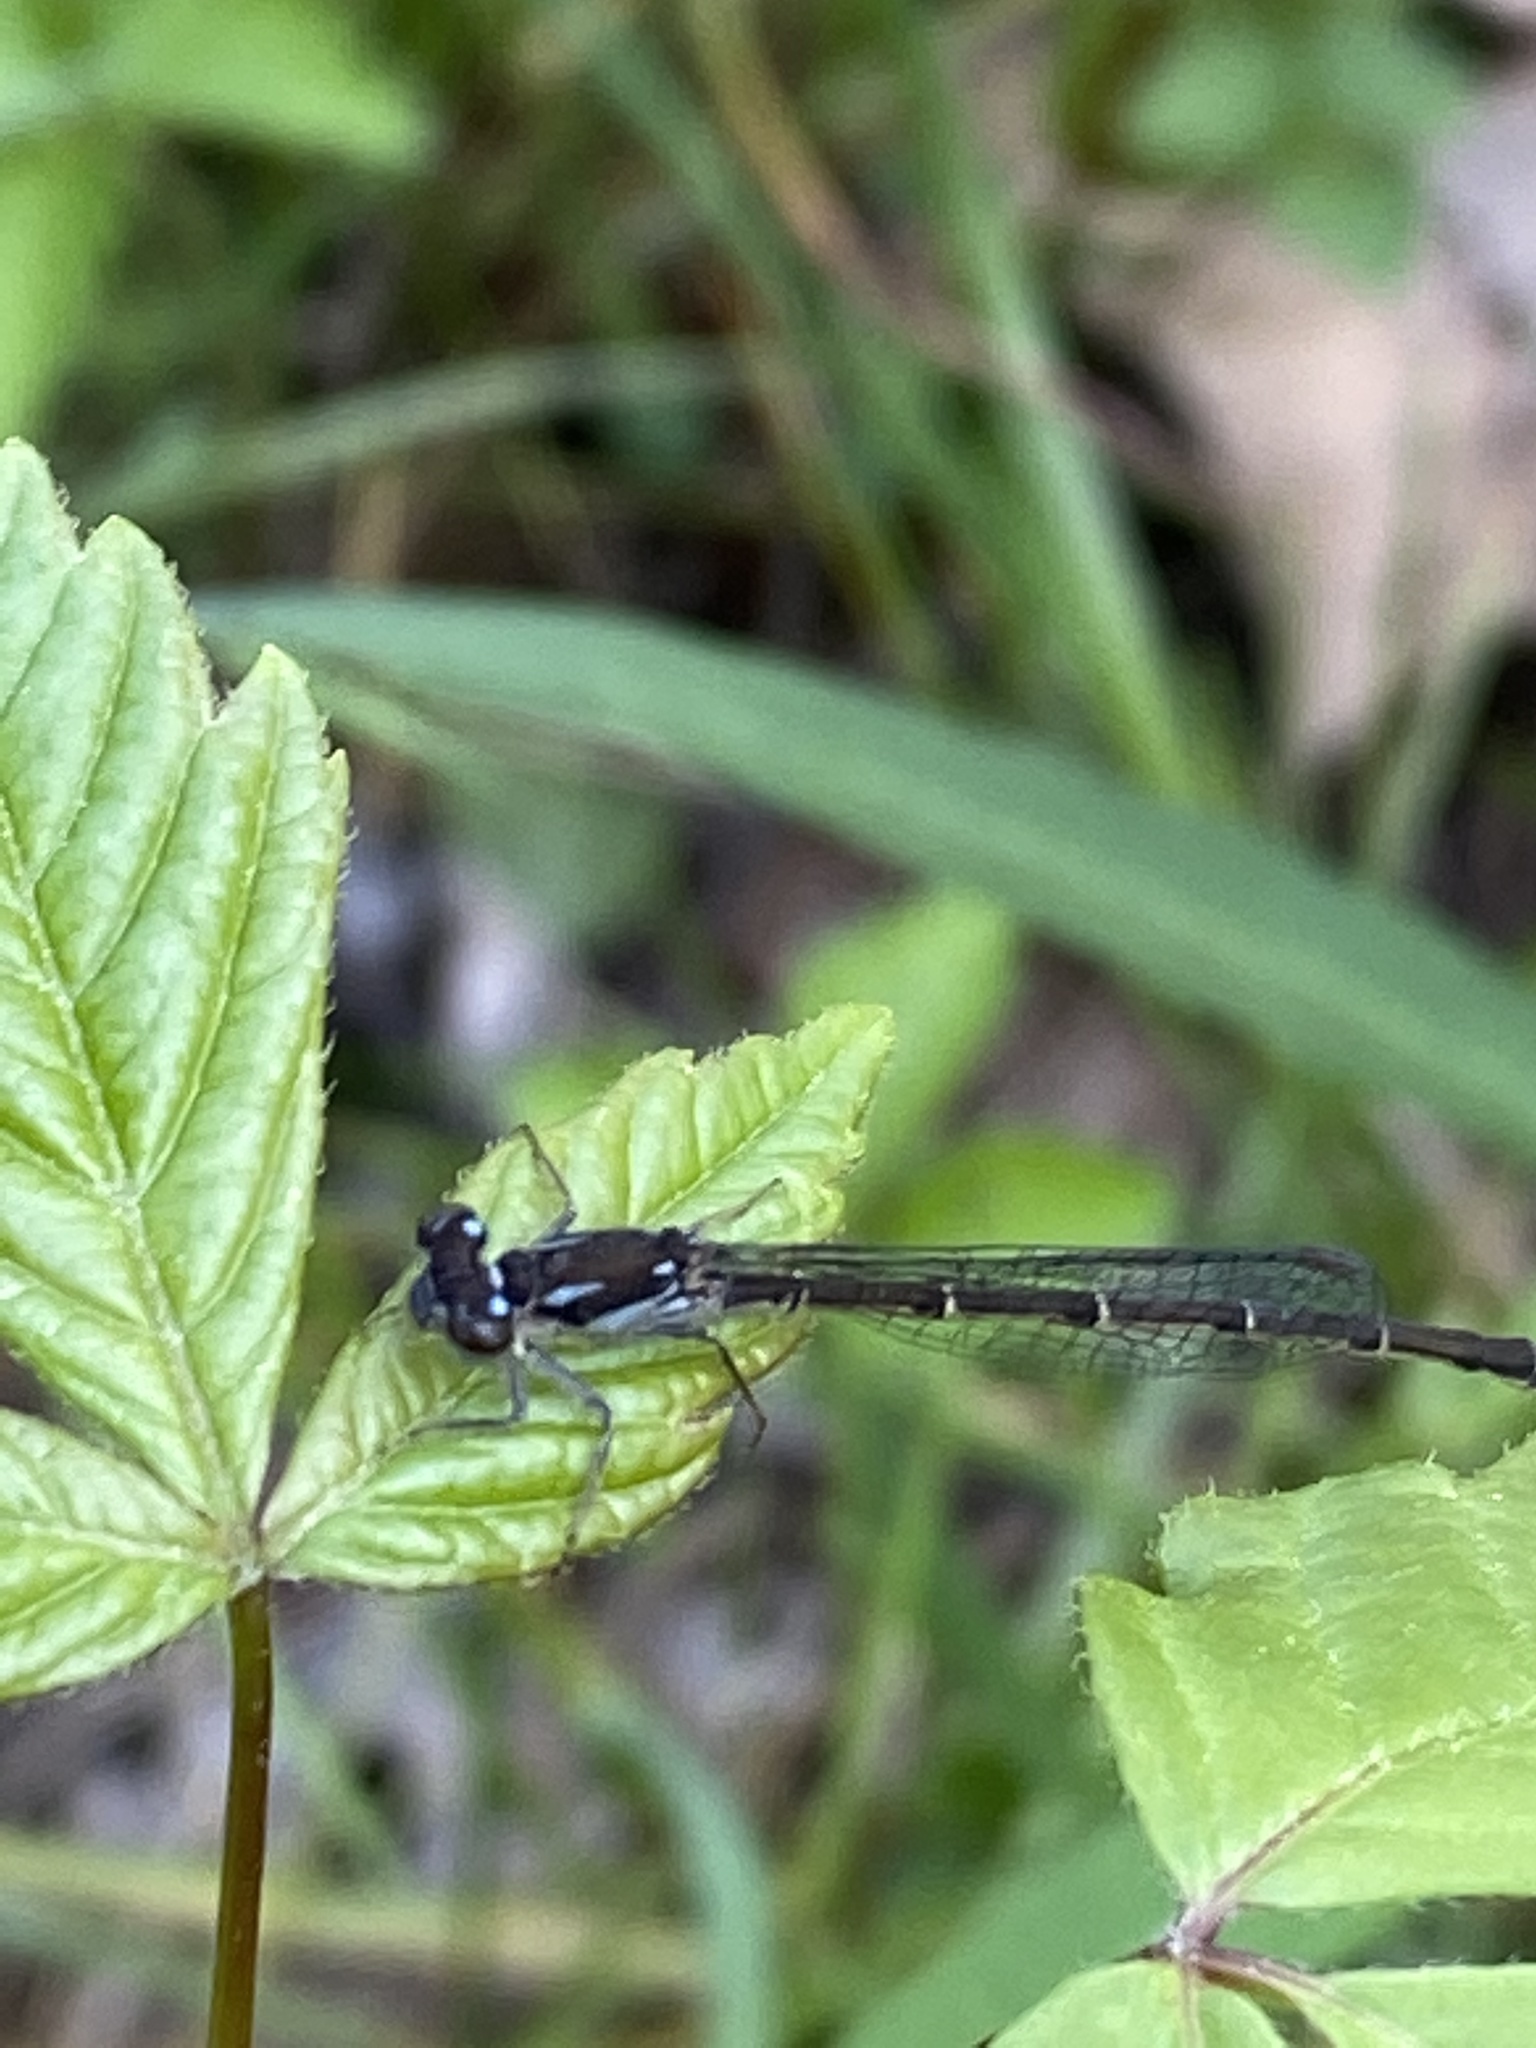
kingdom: Animalia
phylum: Arthropoda
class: Insecta
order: Odonata
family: Coenagrionidae
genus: Ischnura
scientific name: Ischnura posita
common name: Fragile forktail
